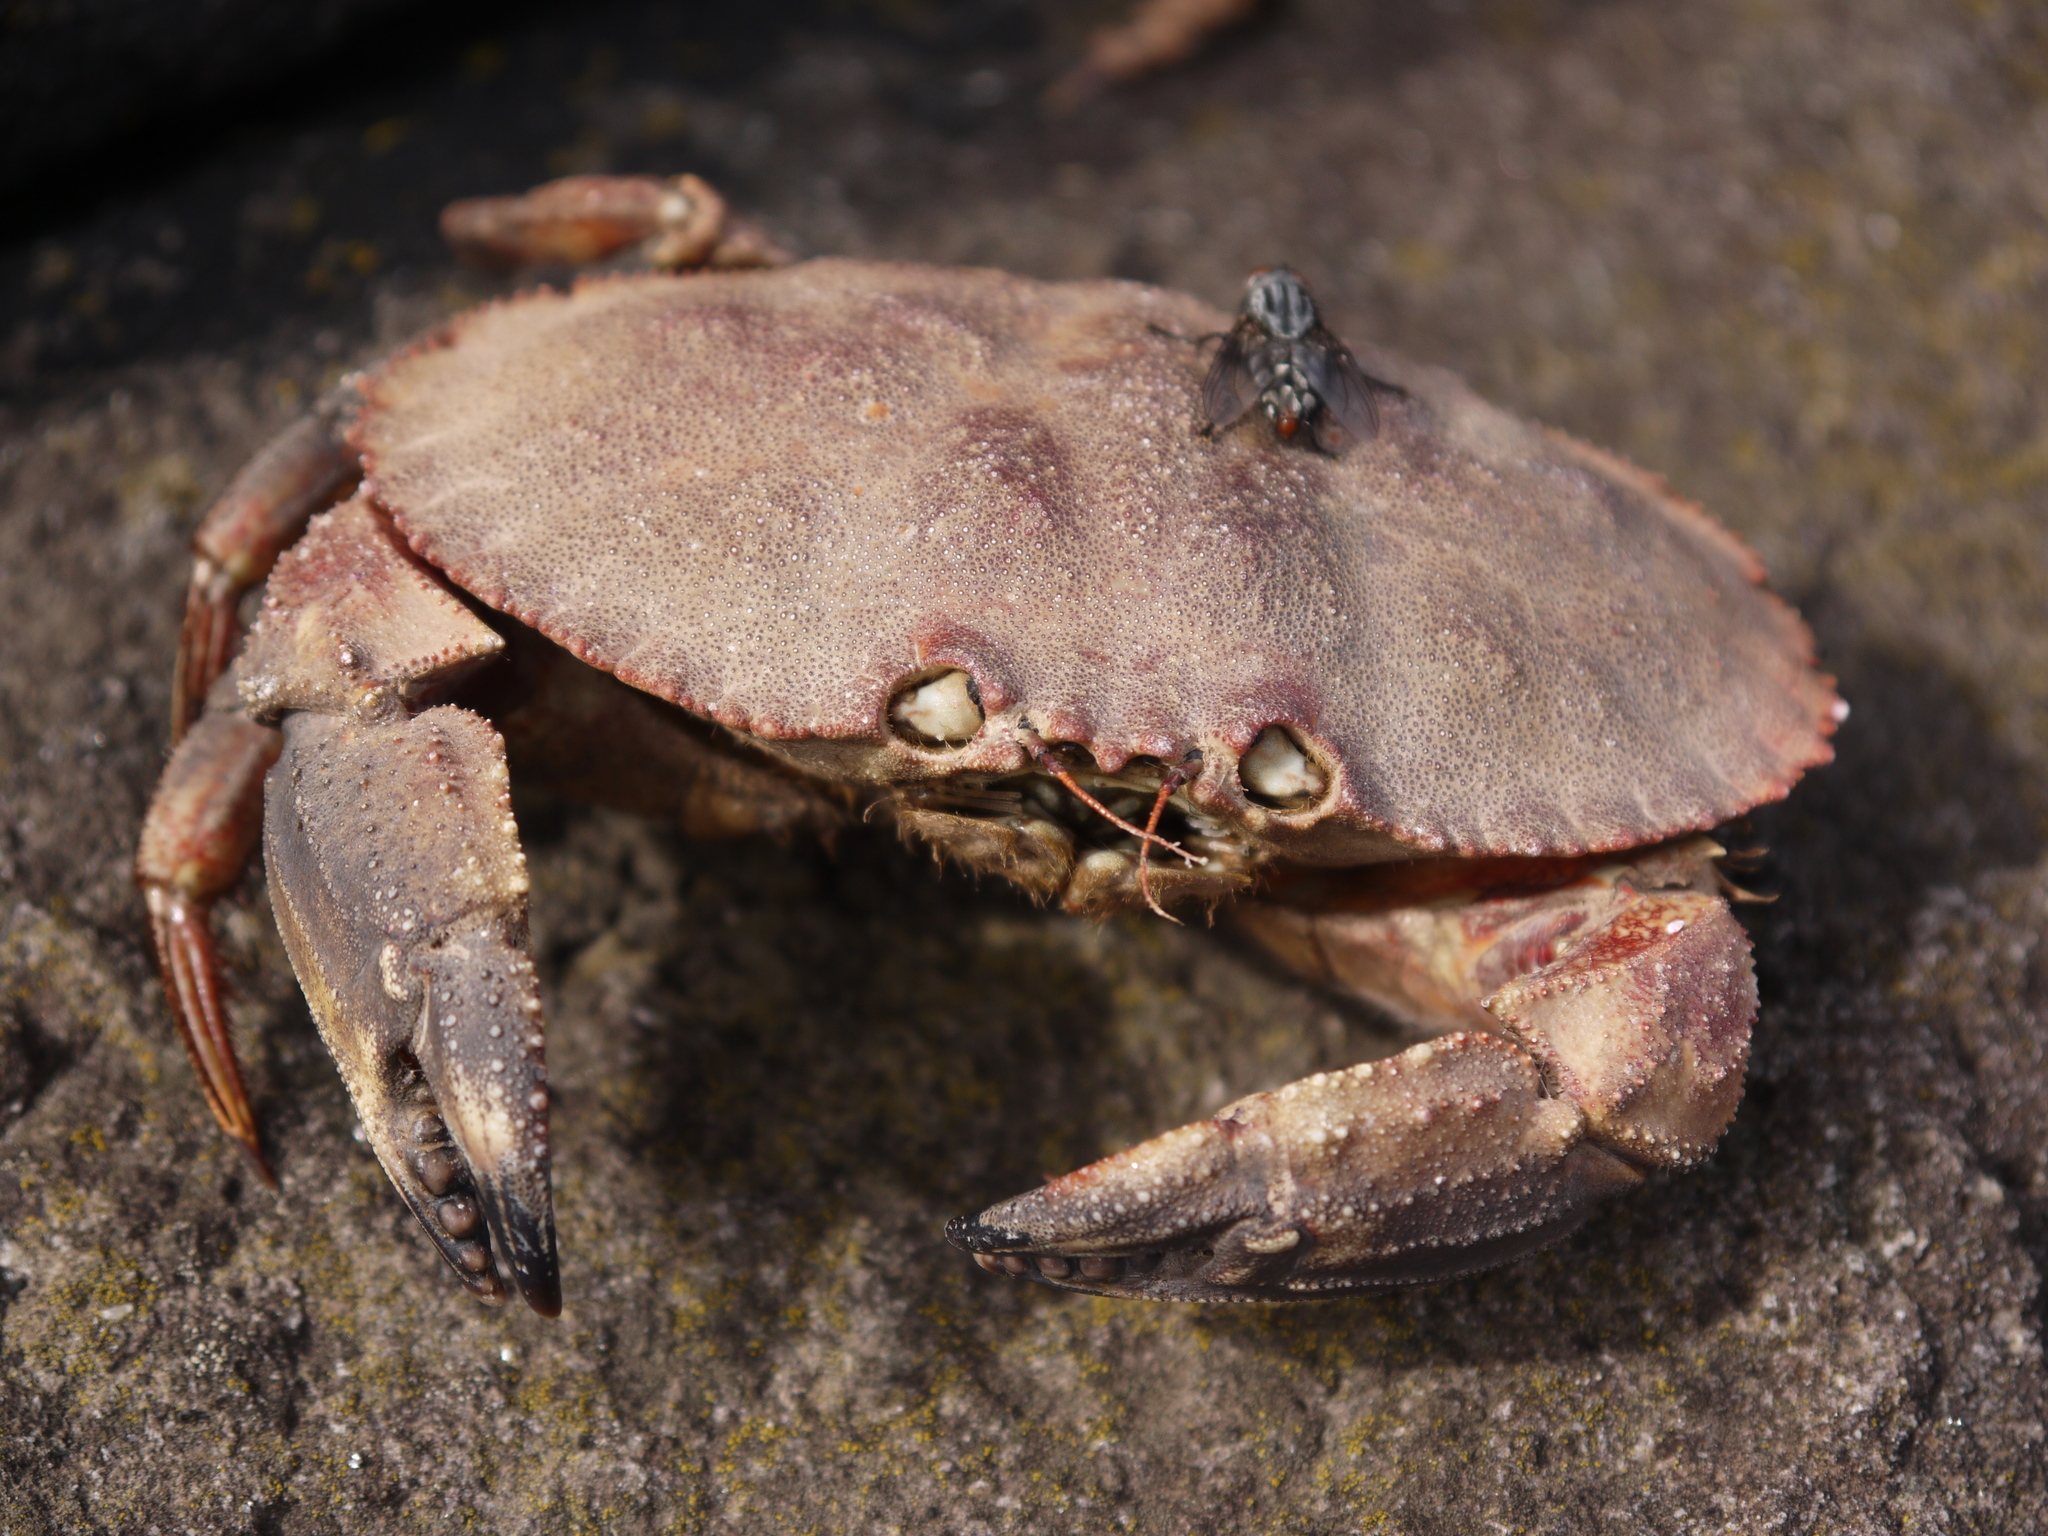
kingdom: Animalia
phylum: Arthropoda
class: Malacostraca
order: Decapoda
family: Cancridae
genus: Cancer
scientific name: Cancer borealis
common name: Jonah crab
